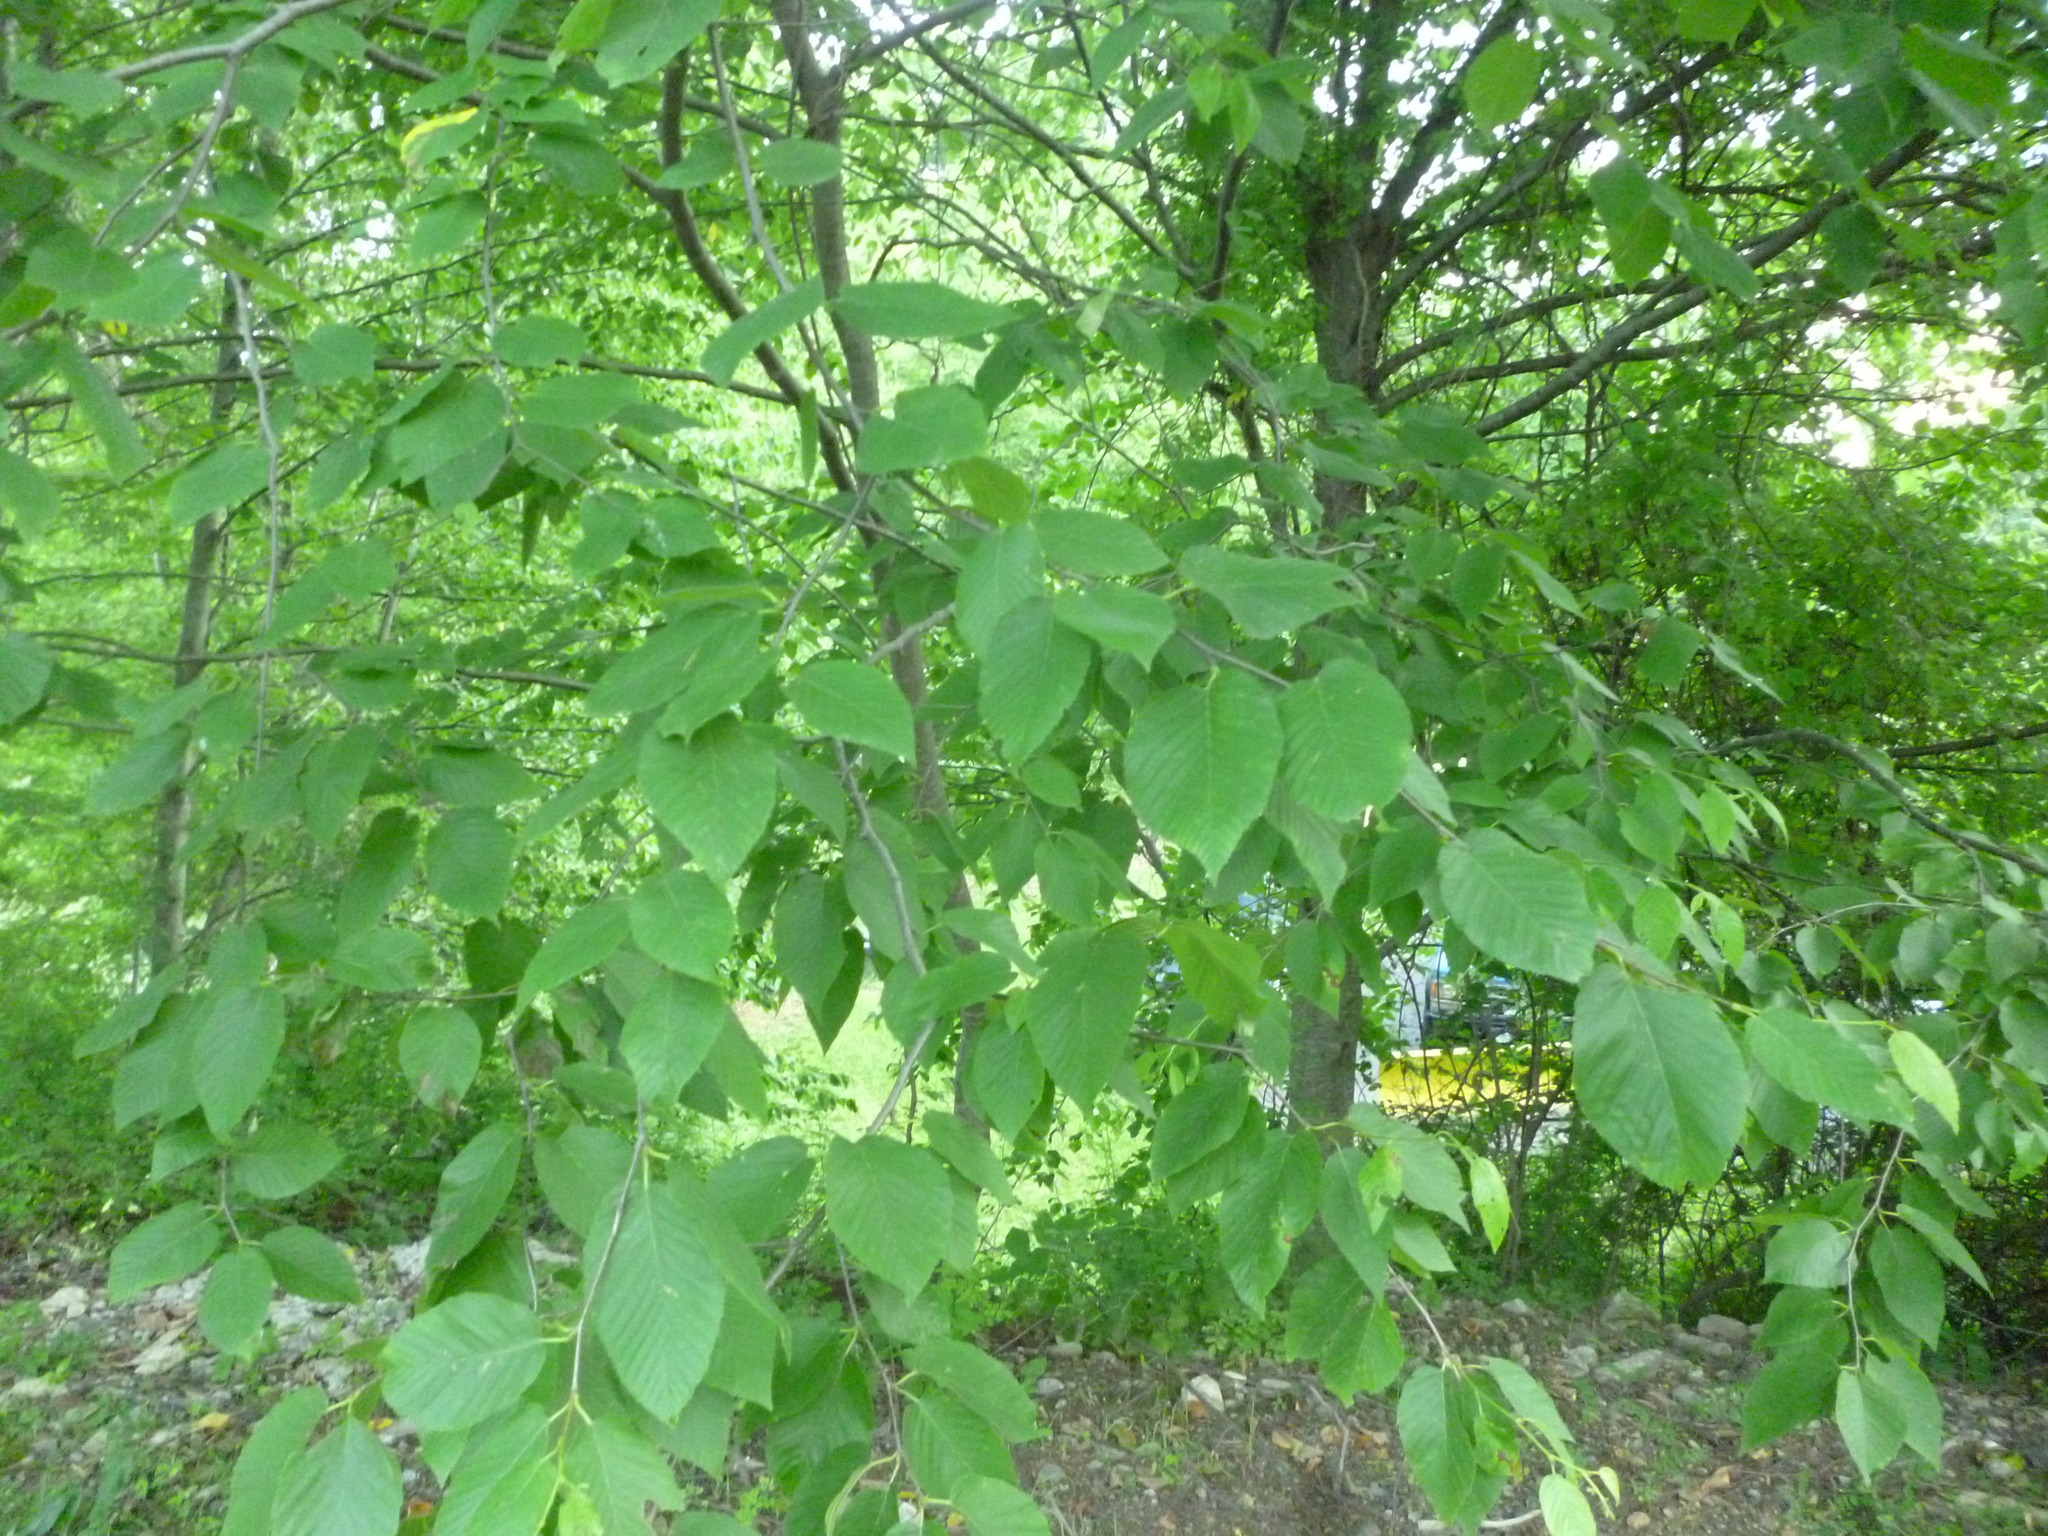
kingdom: Plantae
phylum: Tracheophyta
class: Magnoliopsida
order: Fagales
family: Betulaceae
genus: Betula
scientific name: Betula lenta
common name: Black birch
